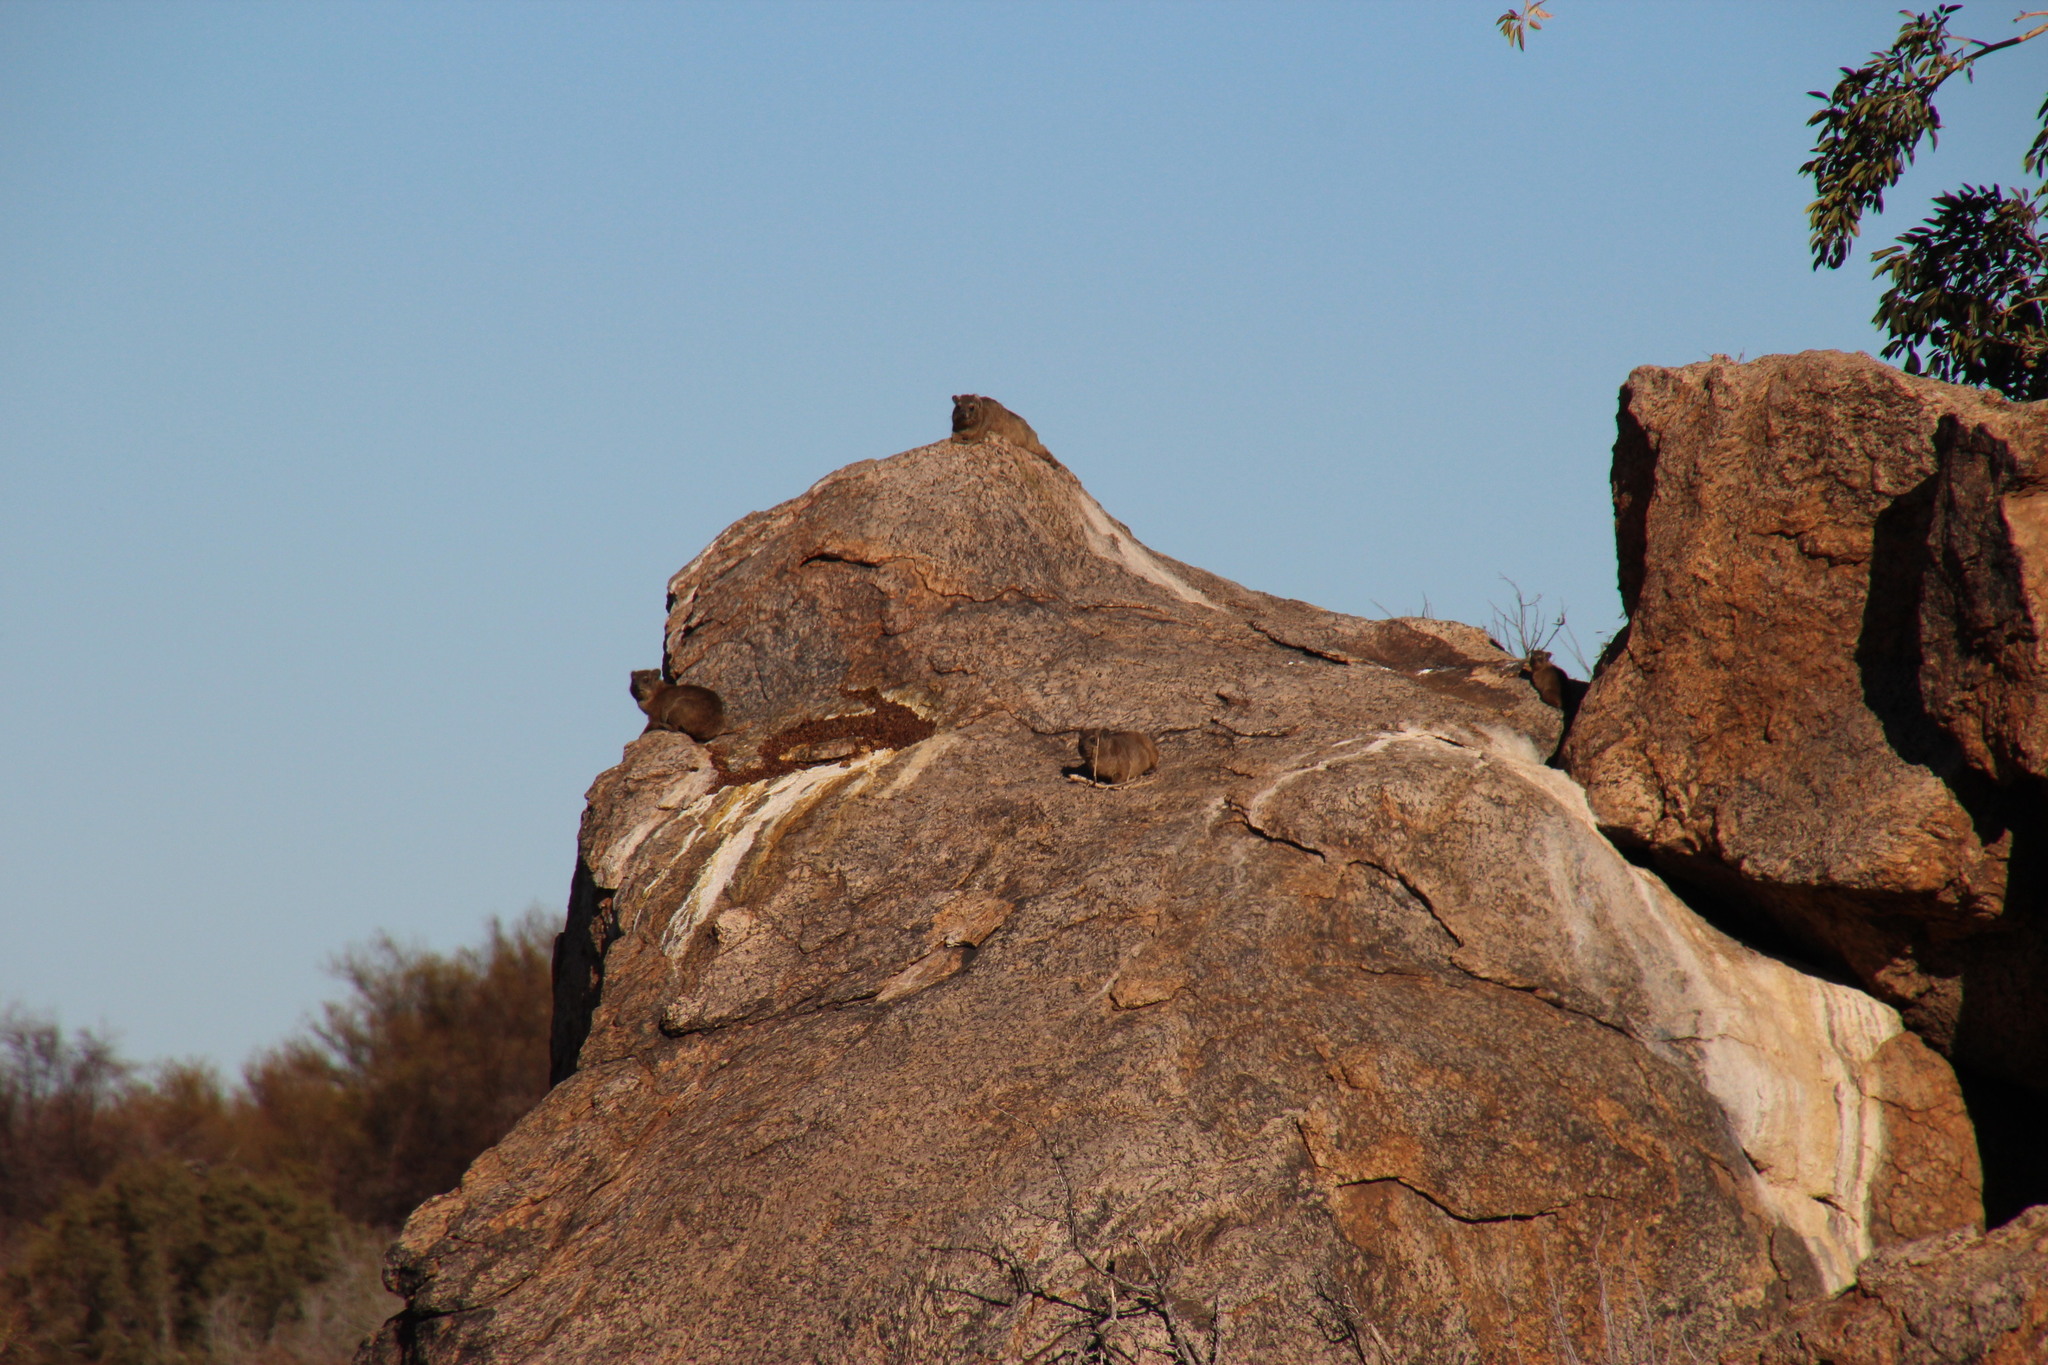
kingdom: Animalia
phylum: Chordata
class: Mammalia
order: Hyracoidea
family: Procaviidae
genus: Procavia
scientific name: Procavia capensis
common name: Rock hyrax
